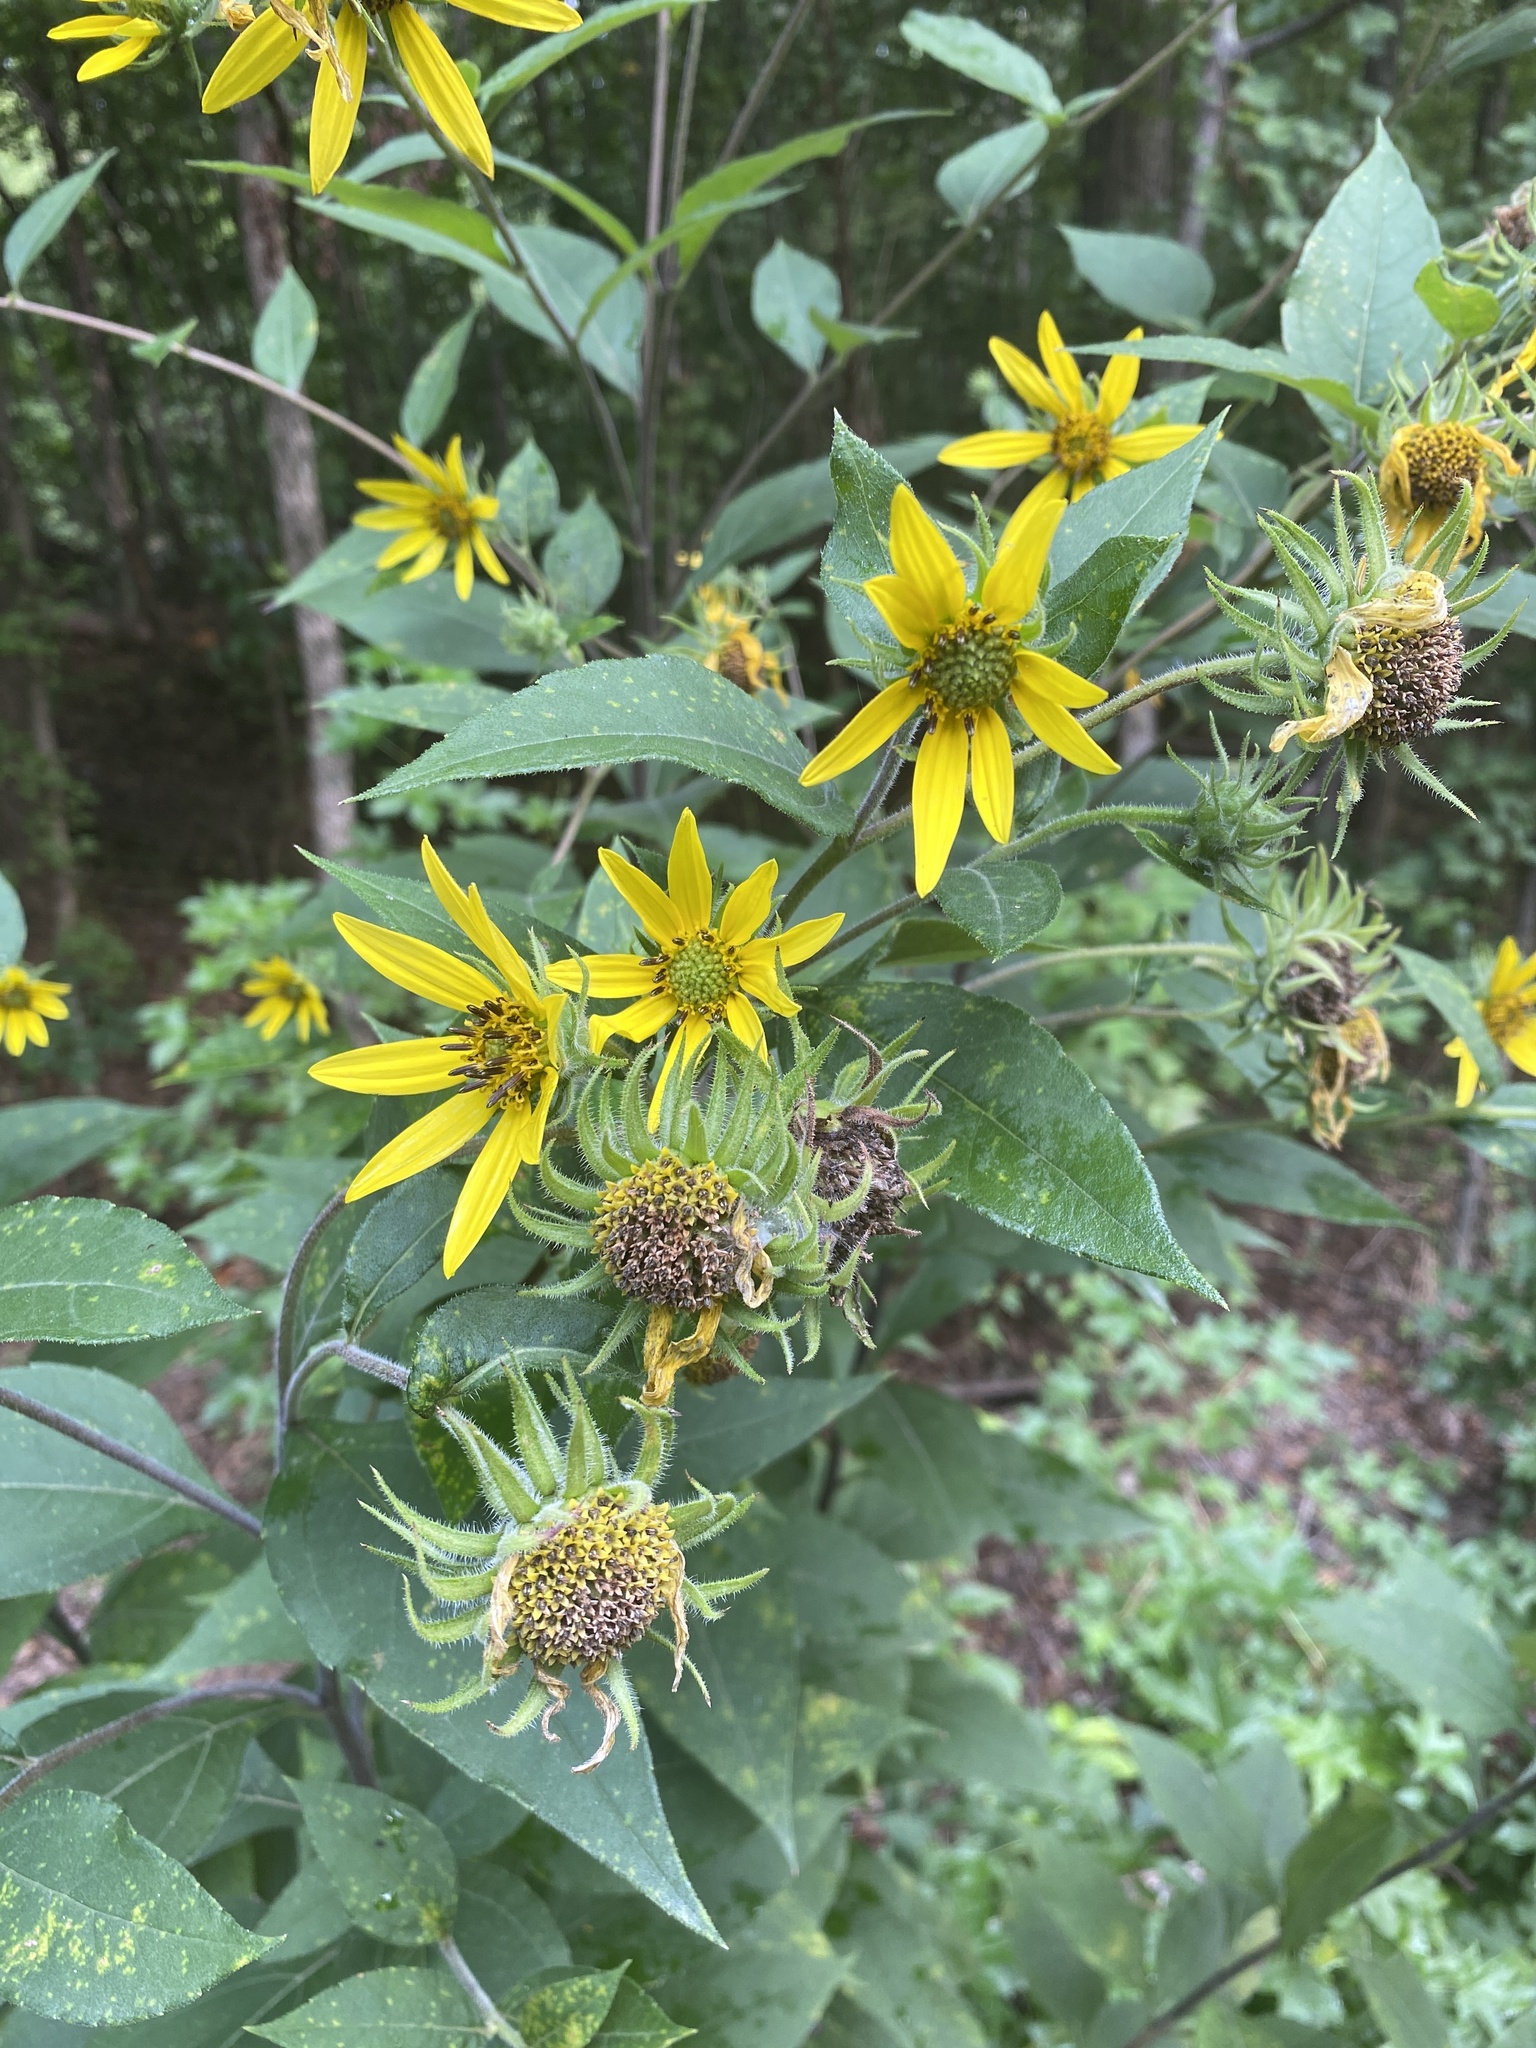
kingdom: Plantae
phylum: Tracheophyta
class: Magnoliopsida
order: Asterales
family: Asteraceae
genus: Helianthus
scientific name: Helianthus resinosus
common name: Resin-dot sunflower
